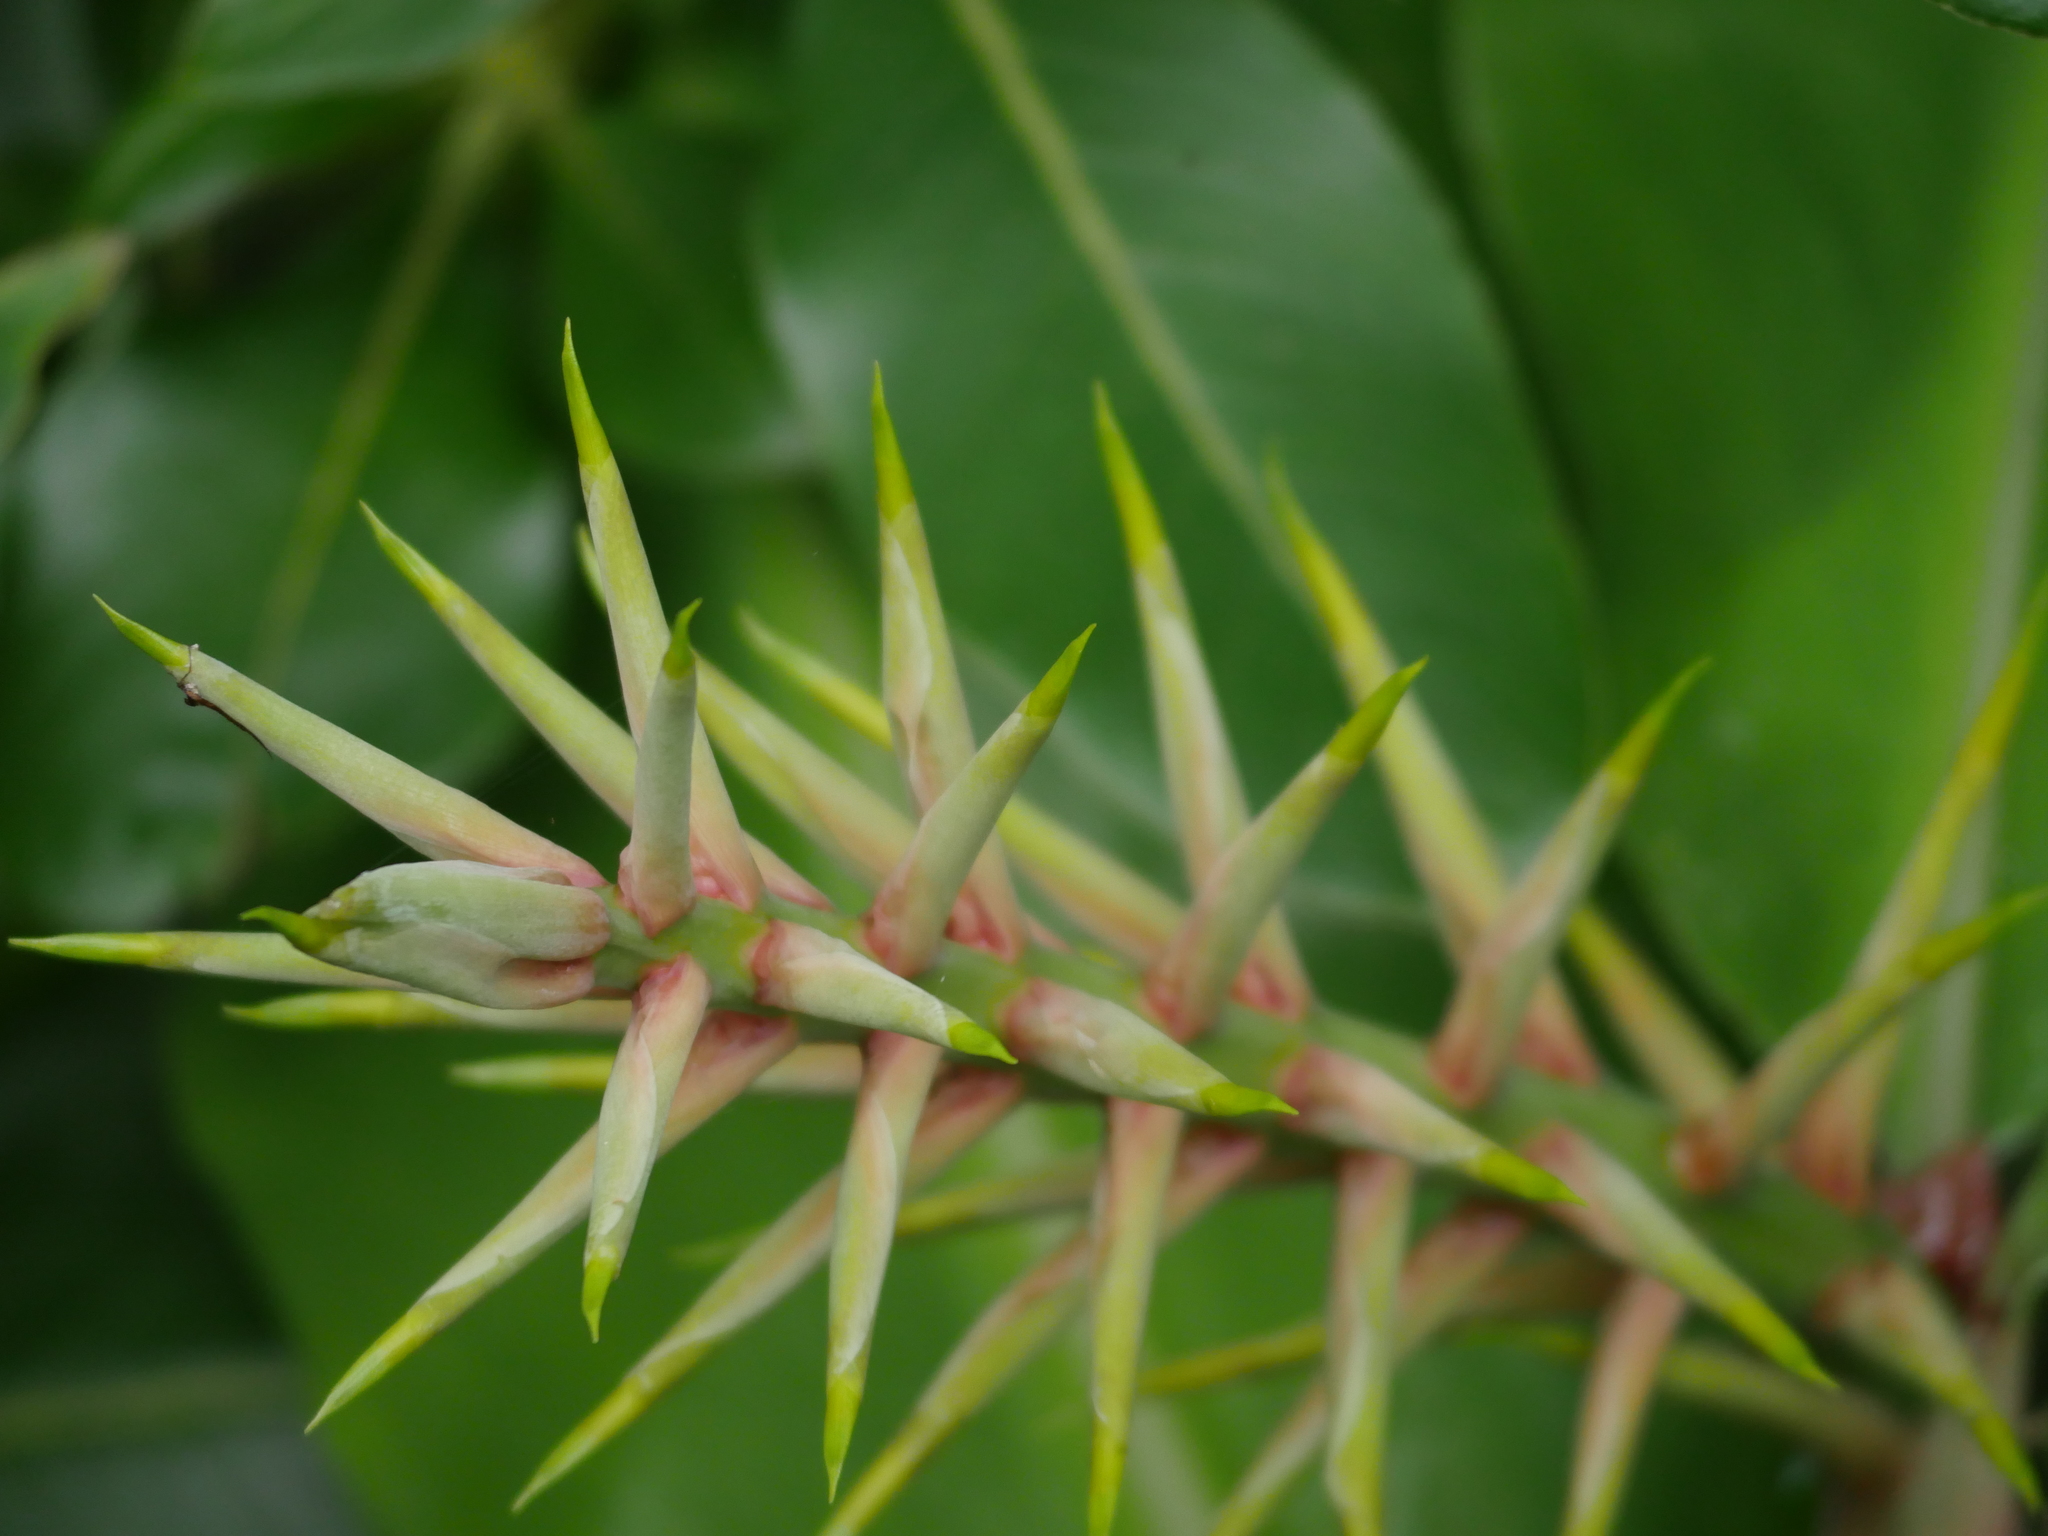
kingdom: Plantae
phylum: Tracheophyta
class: Liliopsida
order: Zingiberales
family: Zingiberaceae
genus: Hedychium
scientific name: Hedychium gardnerianum
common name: Himalayan ginger
